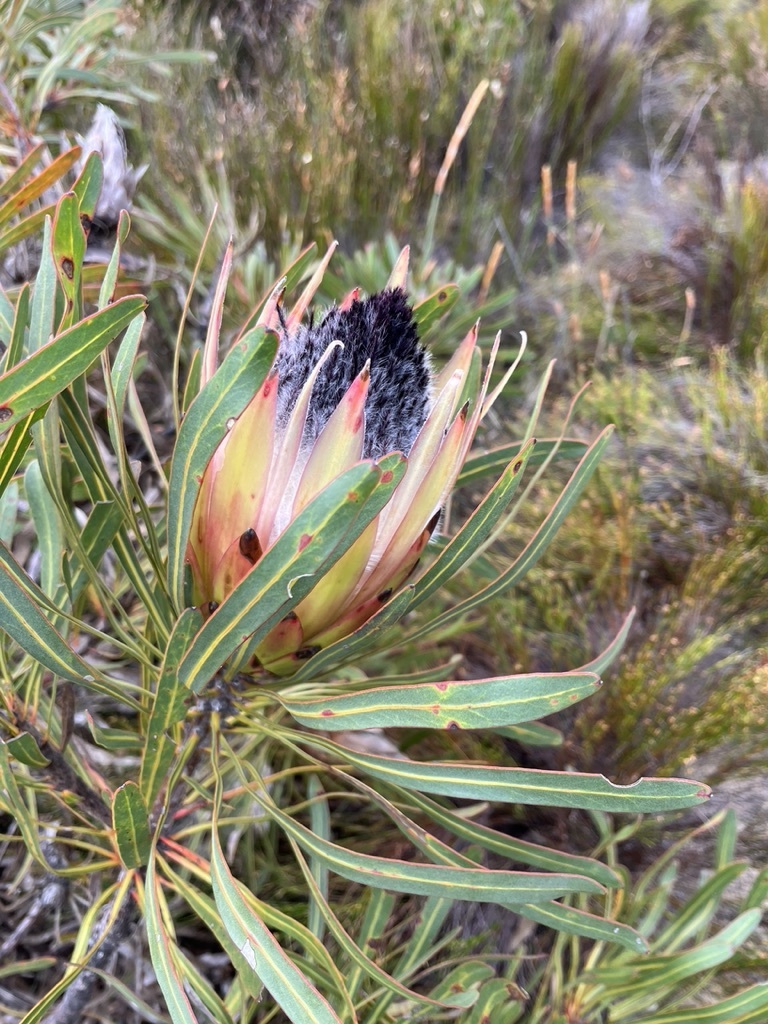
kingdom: Plantae
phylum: Tracheophyta
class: Magnoliopsida
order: Proteales
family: Proteaceae
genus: Protea
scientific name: Protea longifolia
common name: Long-leaf sugarbush
